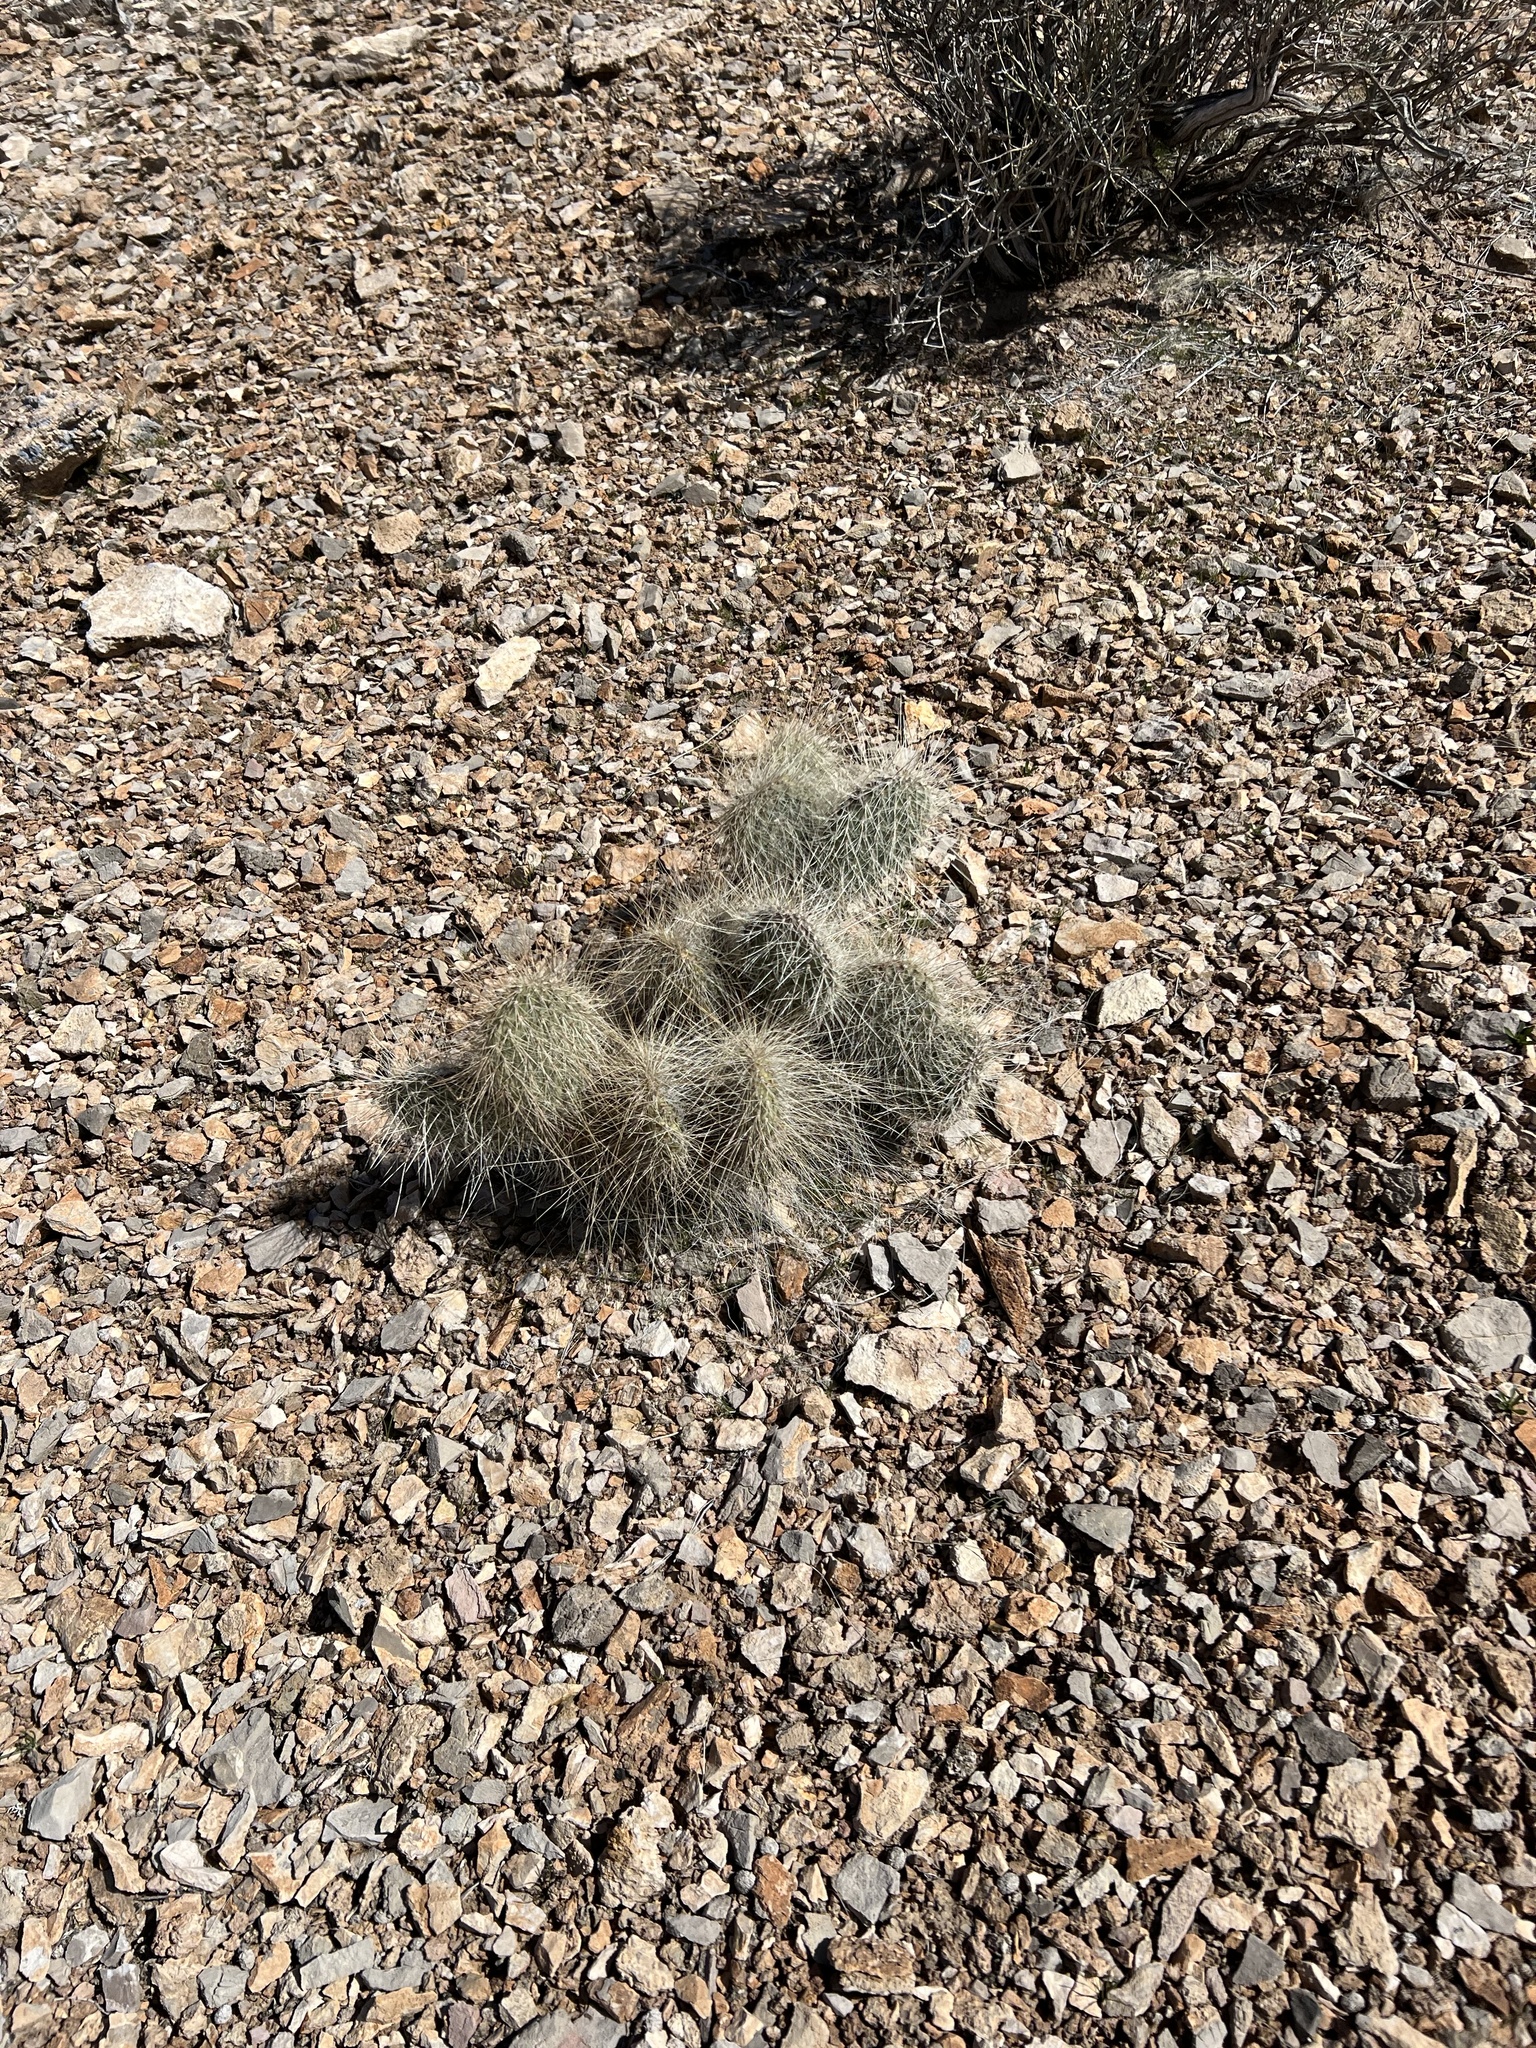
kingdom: Plantae
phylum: Tracheophyta
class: Magnoliopsida
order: Caryophyllales
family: Cactaceae
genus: Opuntia
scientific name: Opuntia polyacantha
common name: Plains prickly-pear
